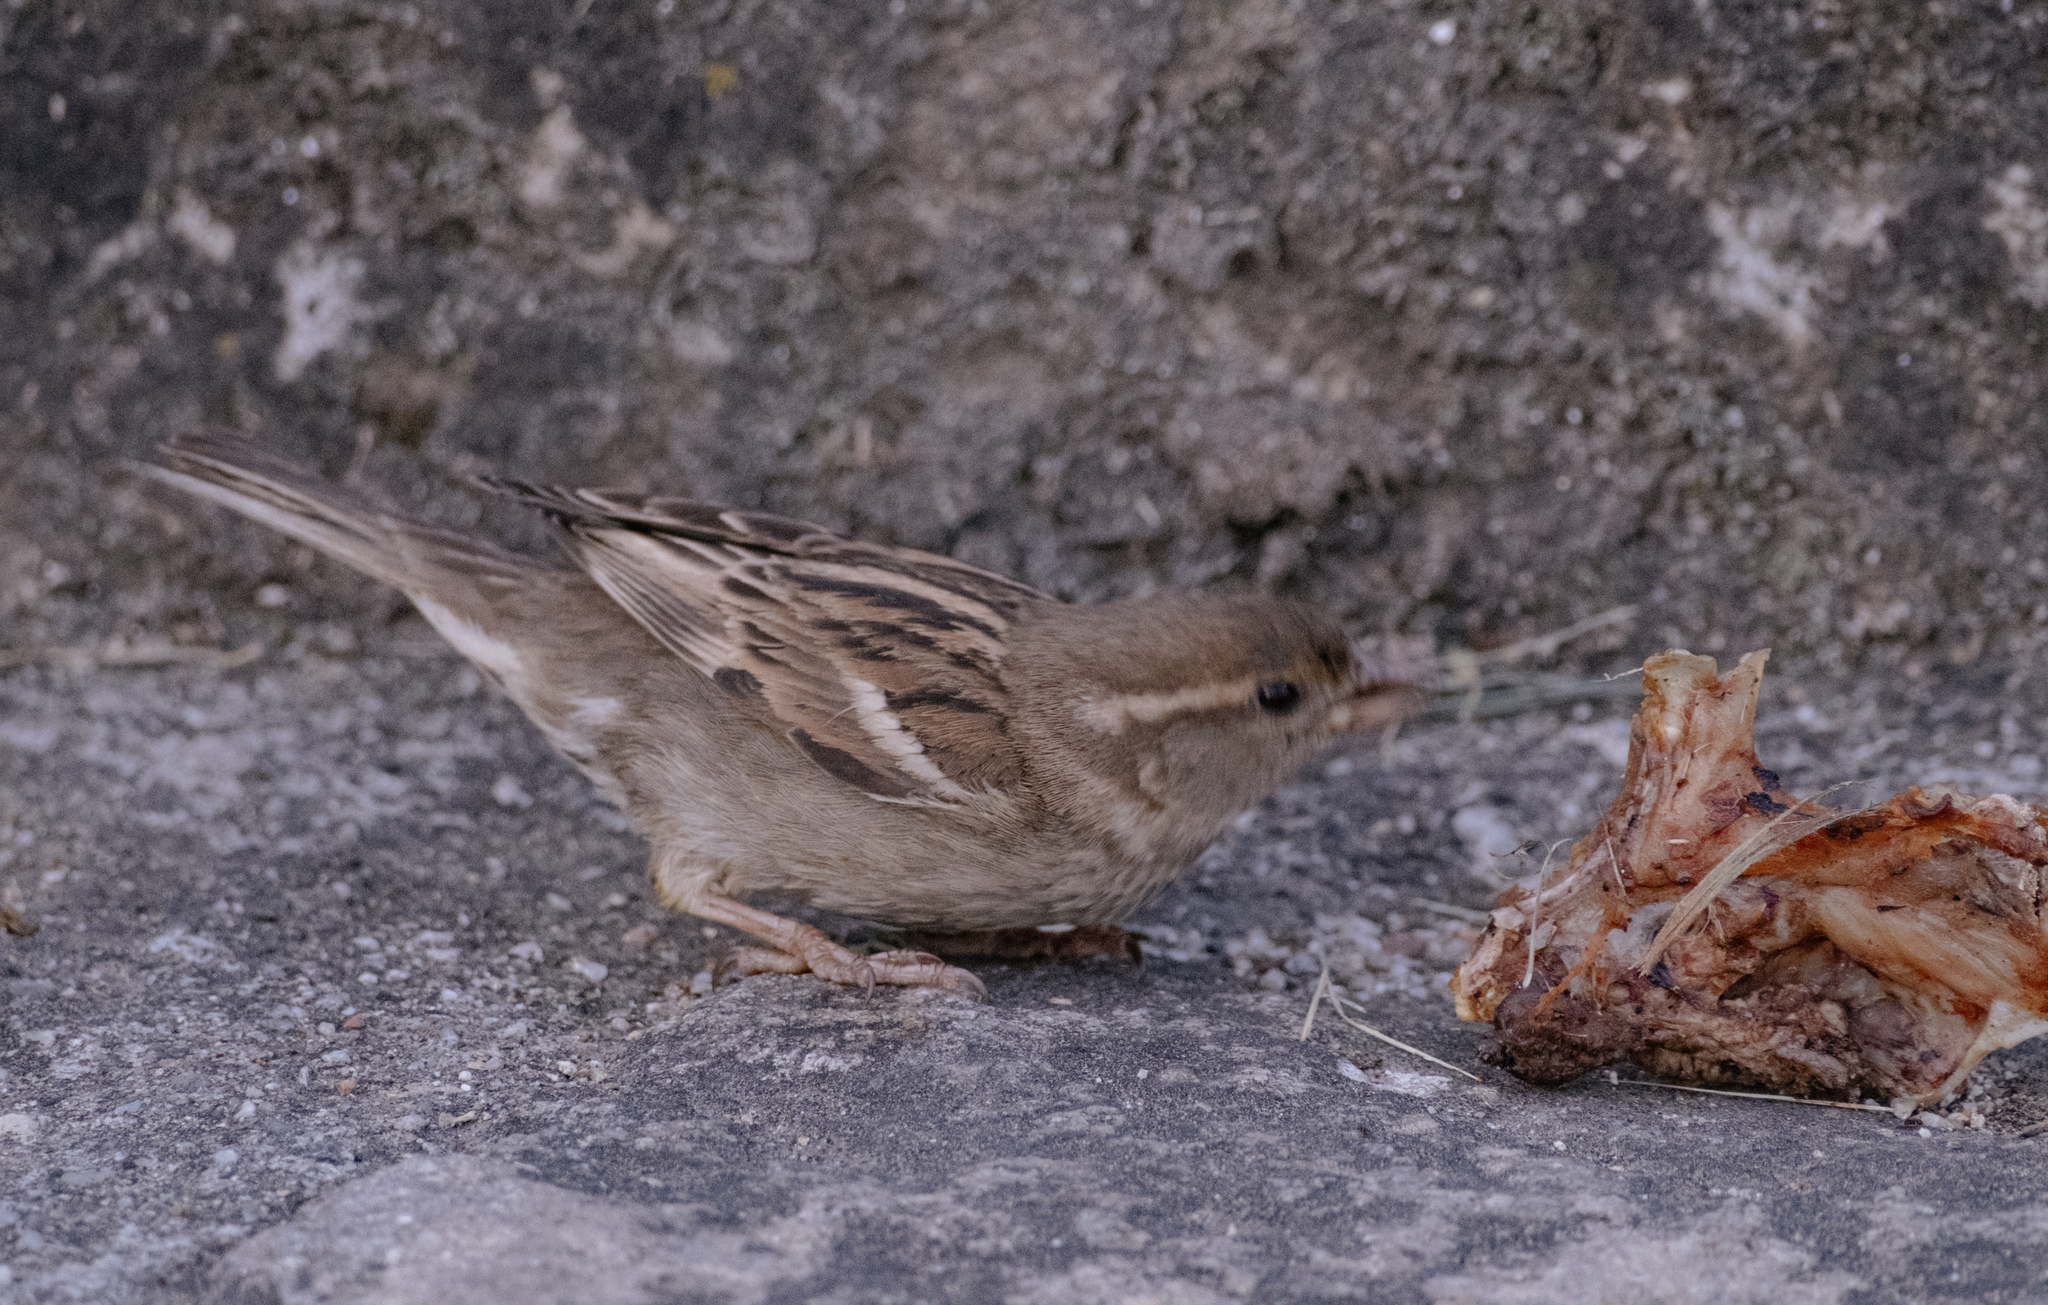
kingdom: Animalia
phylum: Chordata
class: Aves
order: Passeriformes
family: Passeridae
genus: Passer
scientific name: Passer domesticus
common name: House sparrow
